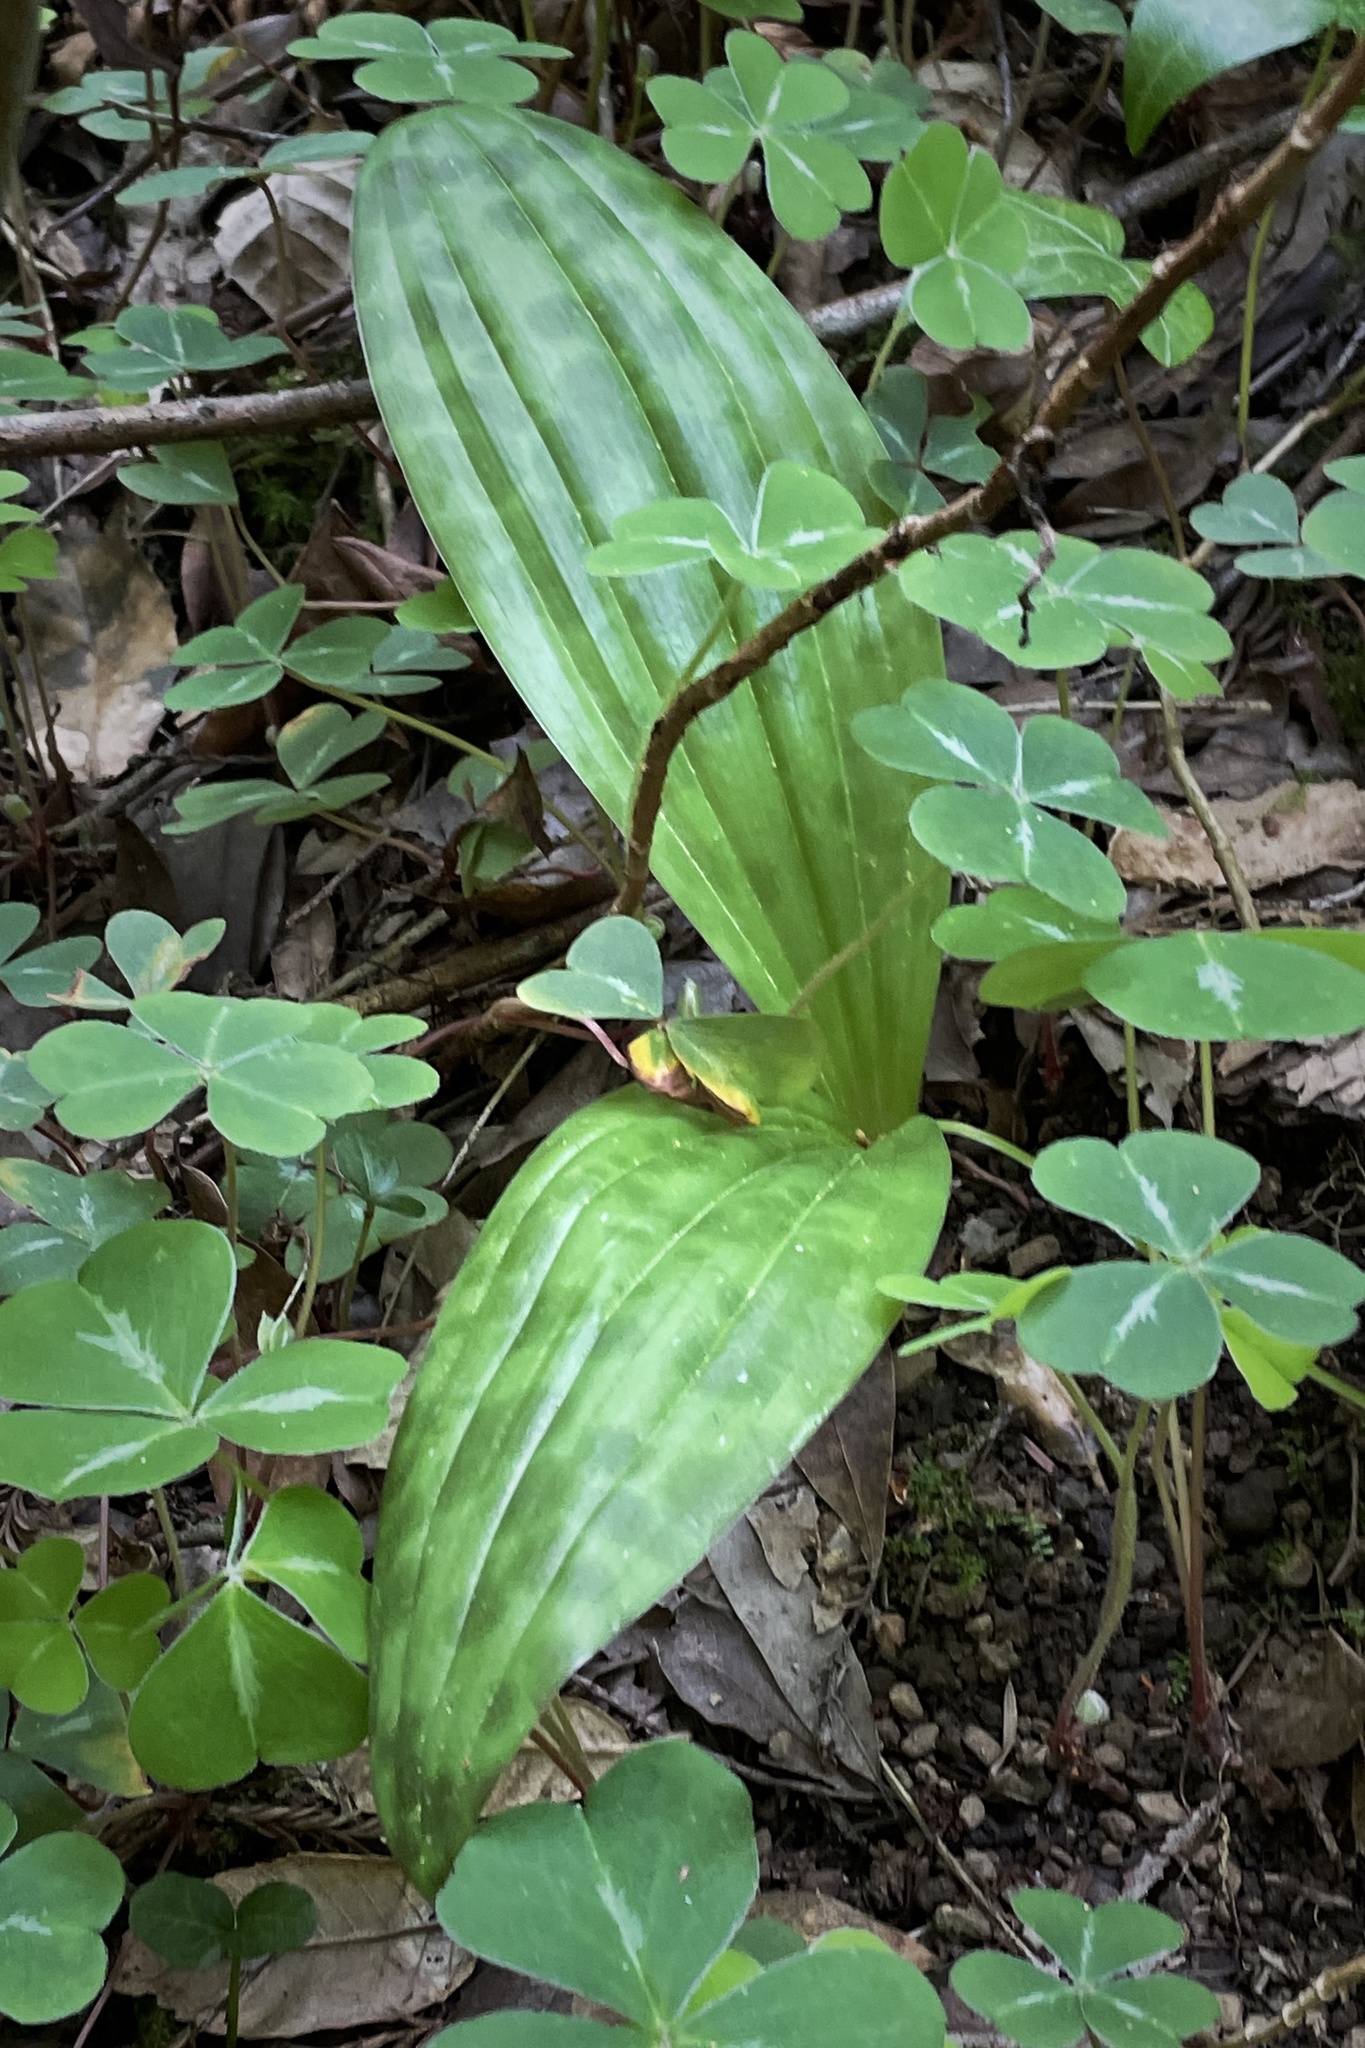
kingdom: Plantae
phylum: Tracheophyta
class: Liliopsida
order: Liliales
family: Liliaceae
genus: Scoliopus
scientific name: Scoliopus bigelovii
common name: Foetid adder's-tongue
